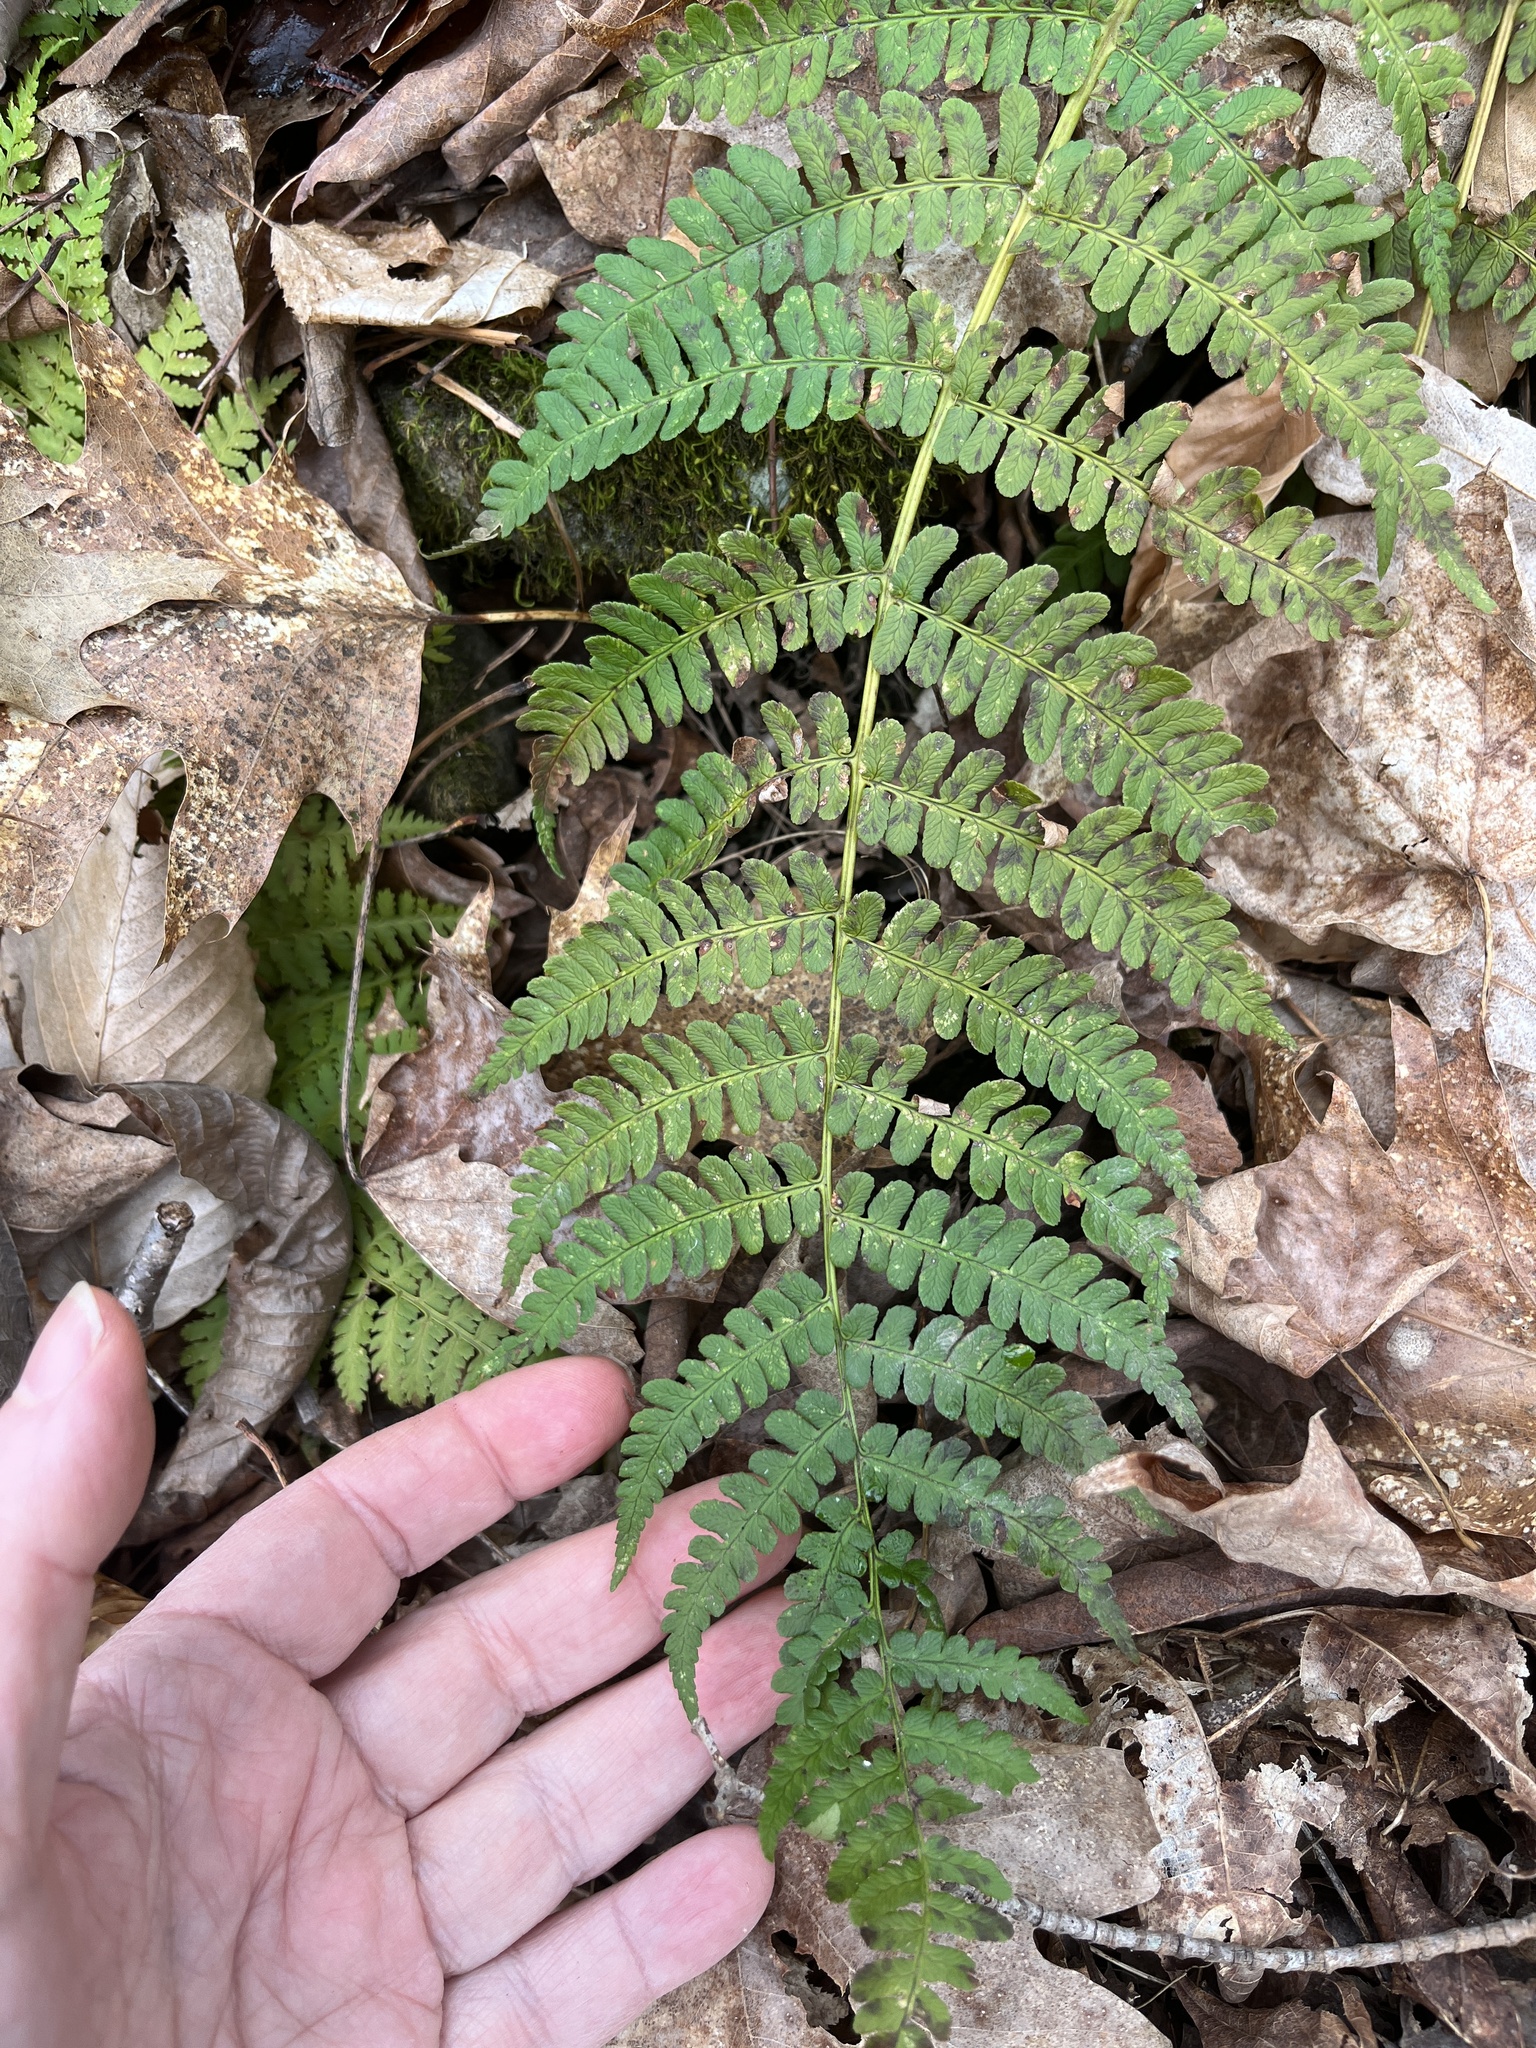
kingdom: Plantae
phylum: Tracheophyta
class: Polypodiopsida
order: Polypodiales
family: Dryopteridaceae
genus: Dryopteris
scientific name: Dryopteris marginalis
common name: Marginal wood fern
